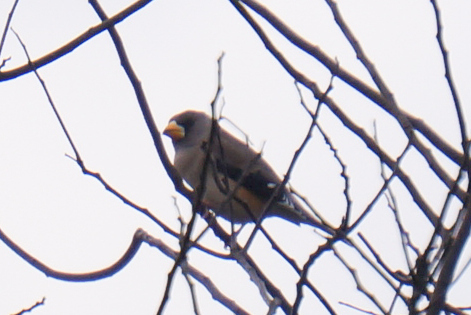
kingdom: Animalia
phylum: Chordata
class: Aves
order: Passeriformes
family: Fringillidae
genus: Eophona
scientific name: Eophona migratoria
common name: Yellow-billed grosbeak
